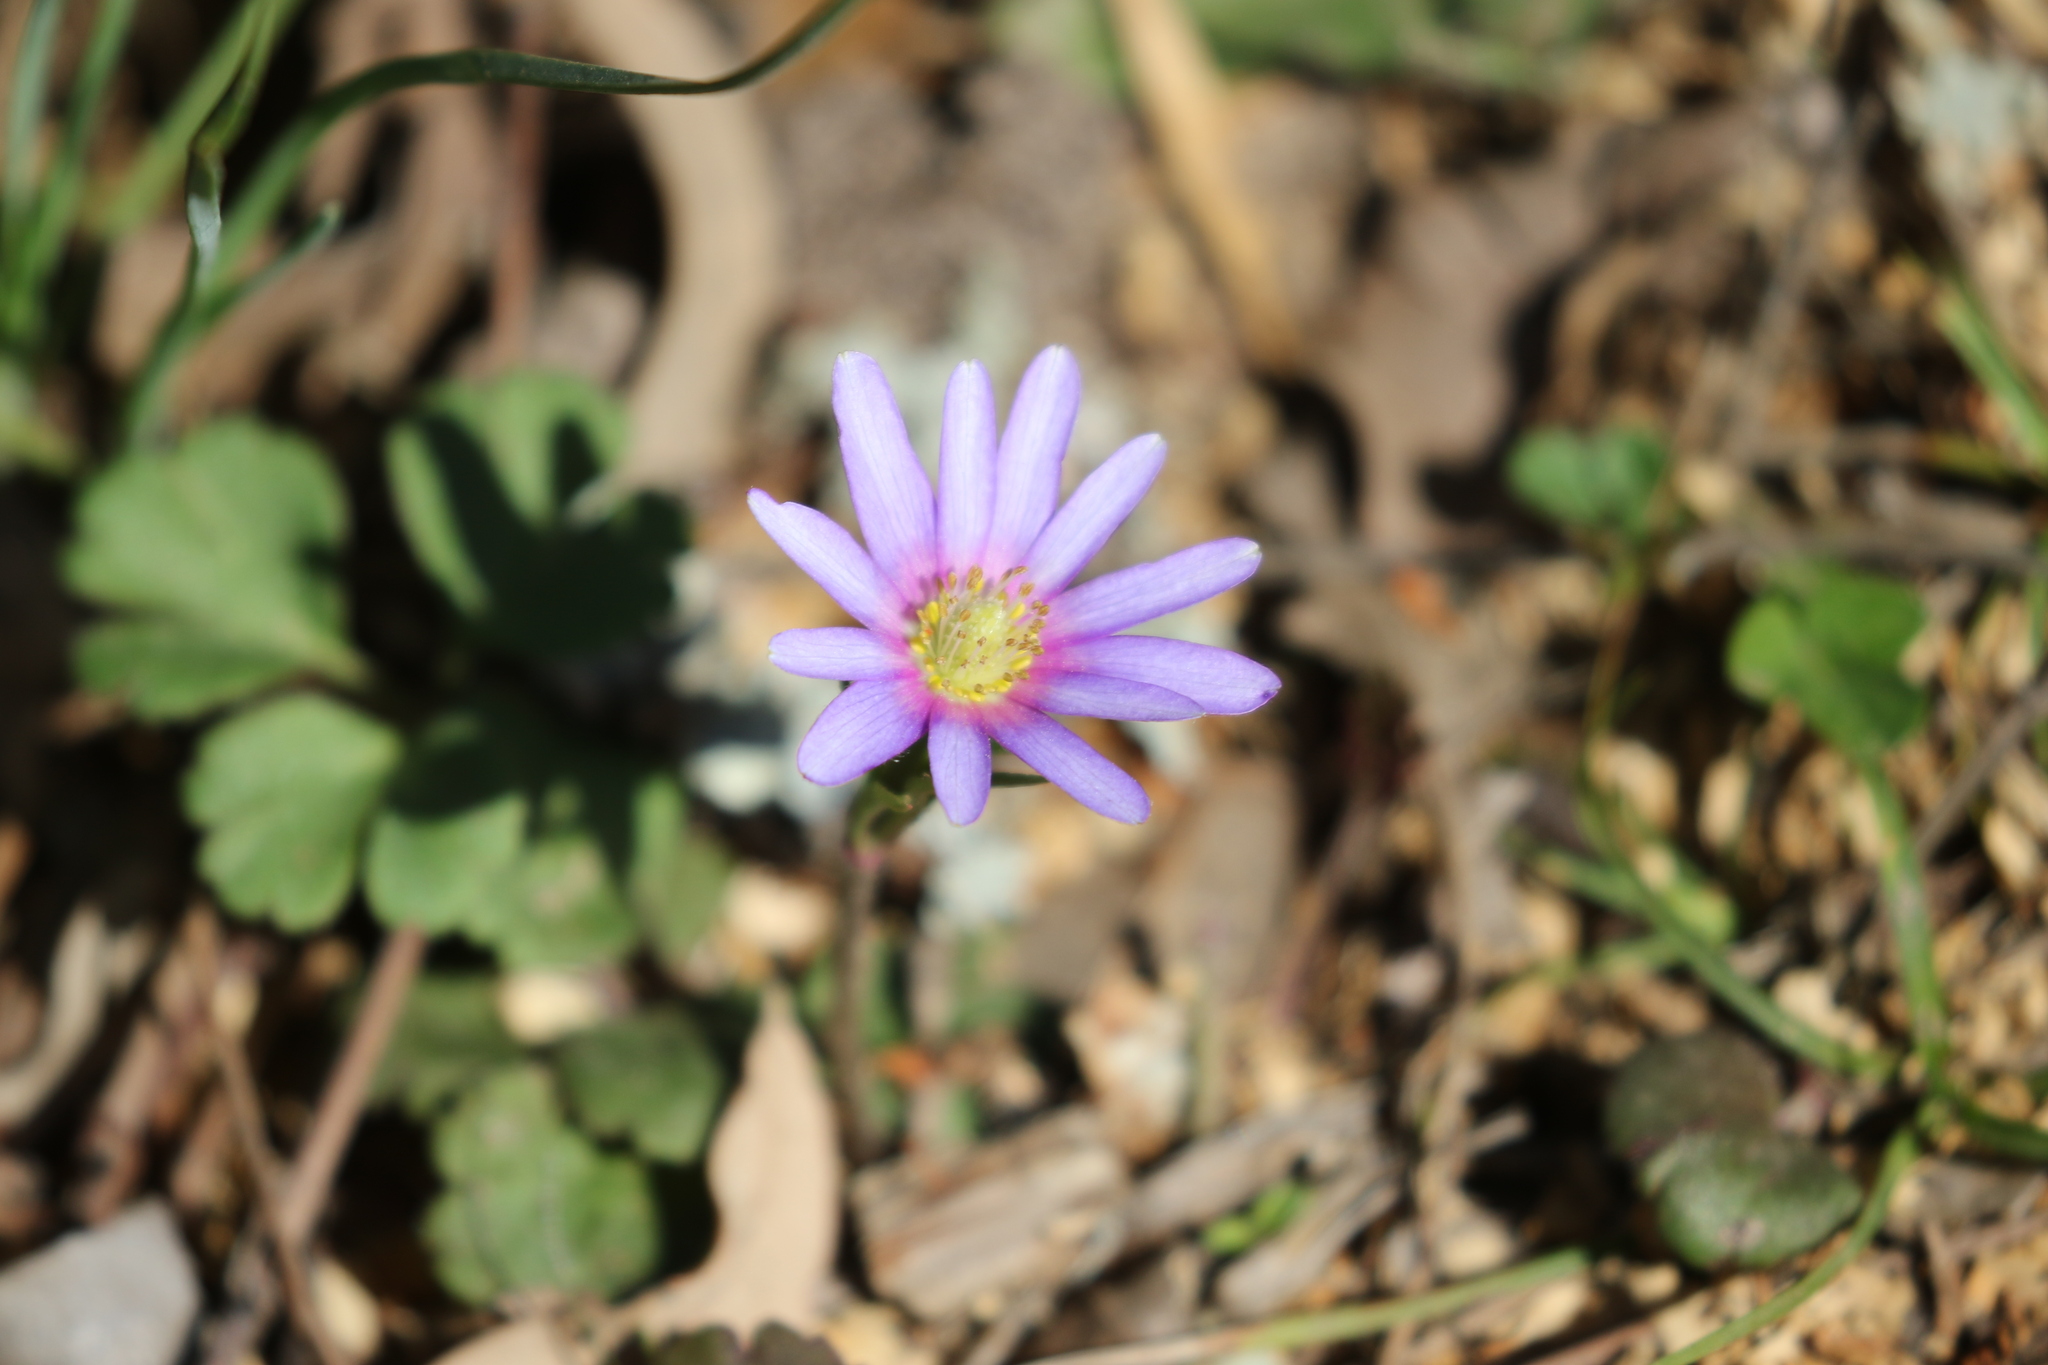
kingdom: Plantae
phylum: Tracheophyta
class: Magnoliopsida
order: Ranunculales
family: Ranunculaceae
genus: Anemone
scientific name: Anemone berlandieri
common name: Ten-petal anemone
